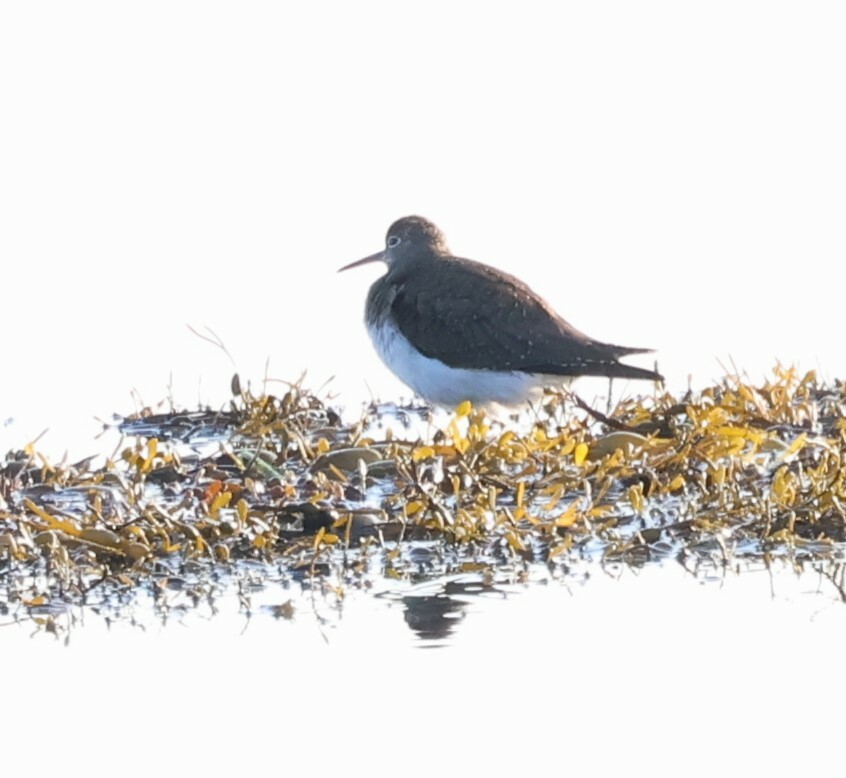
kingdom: Animalia
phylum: Chordata
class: Aves
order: Charadriiformes
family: Scolopacidae
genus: Tringa
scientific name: Tringa solitaria
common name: Solitary sandpiper
